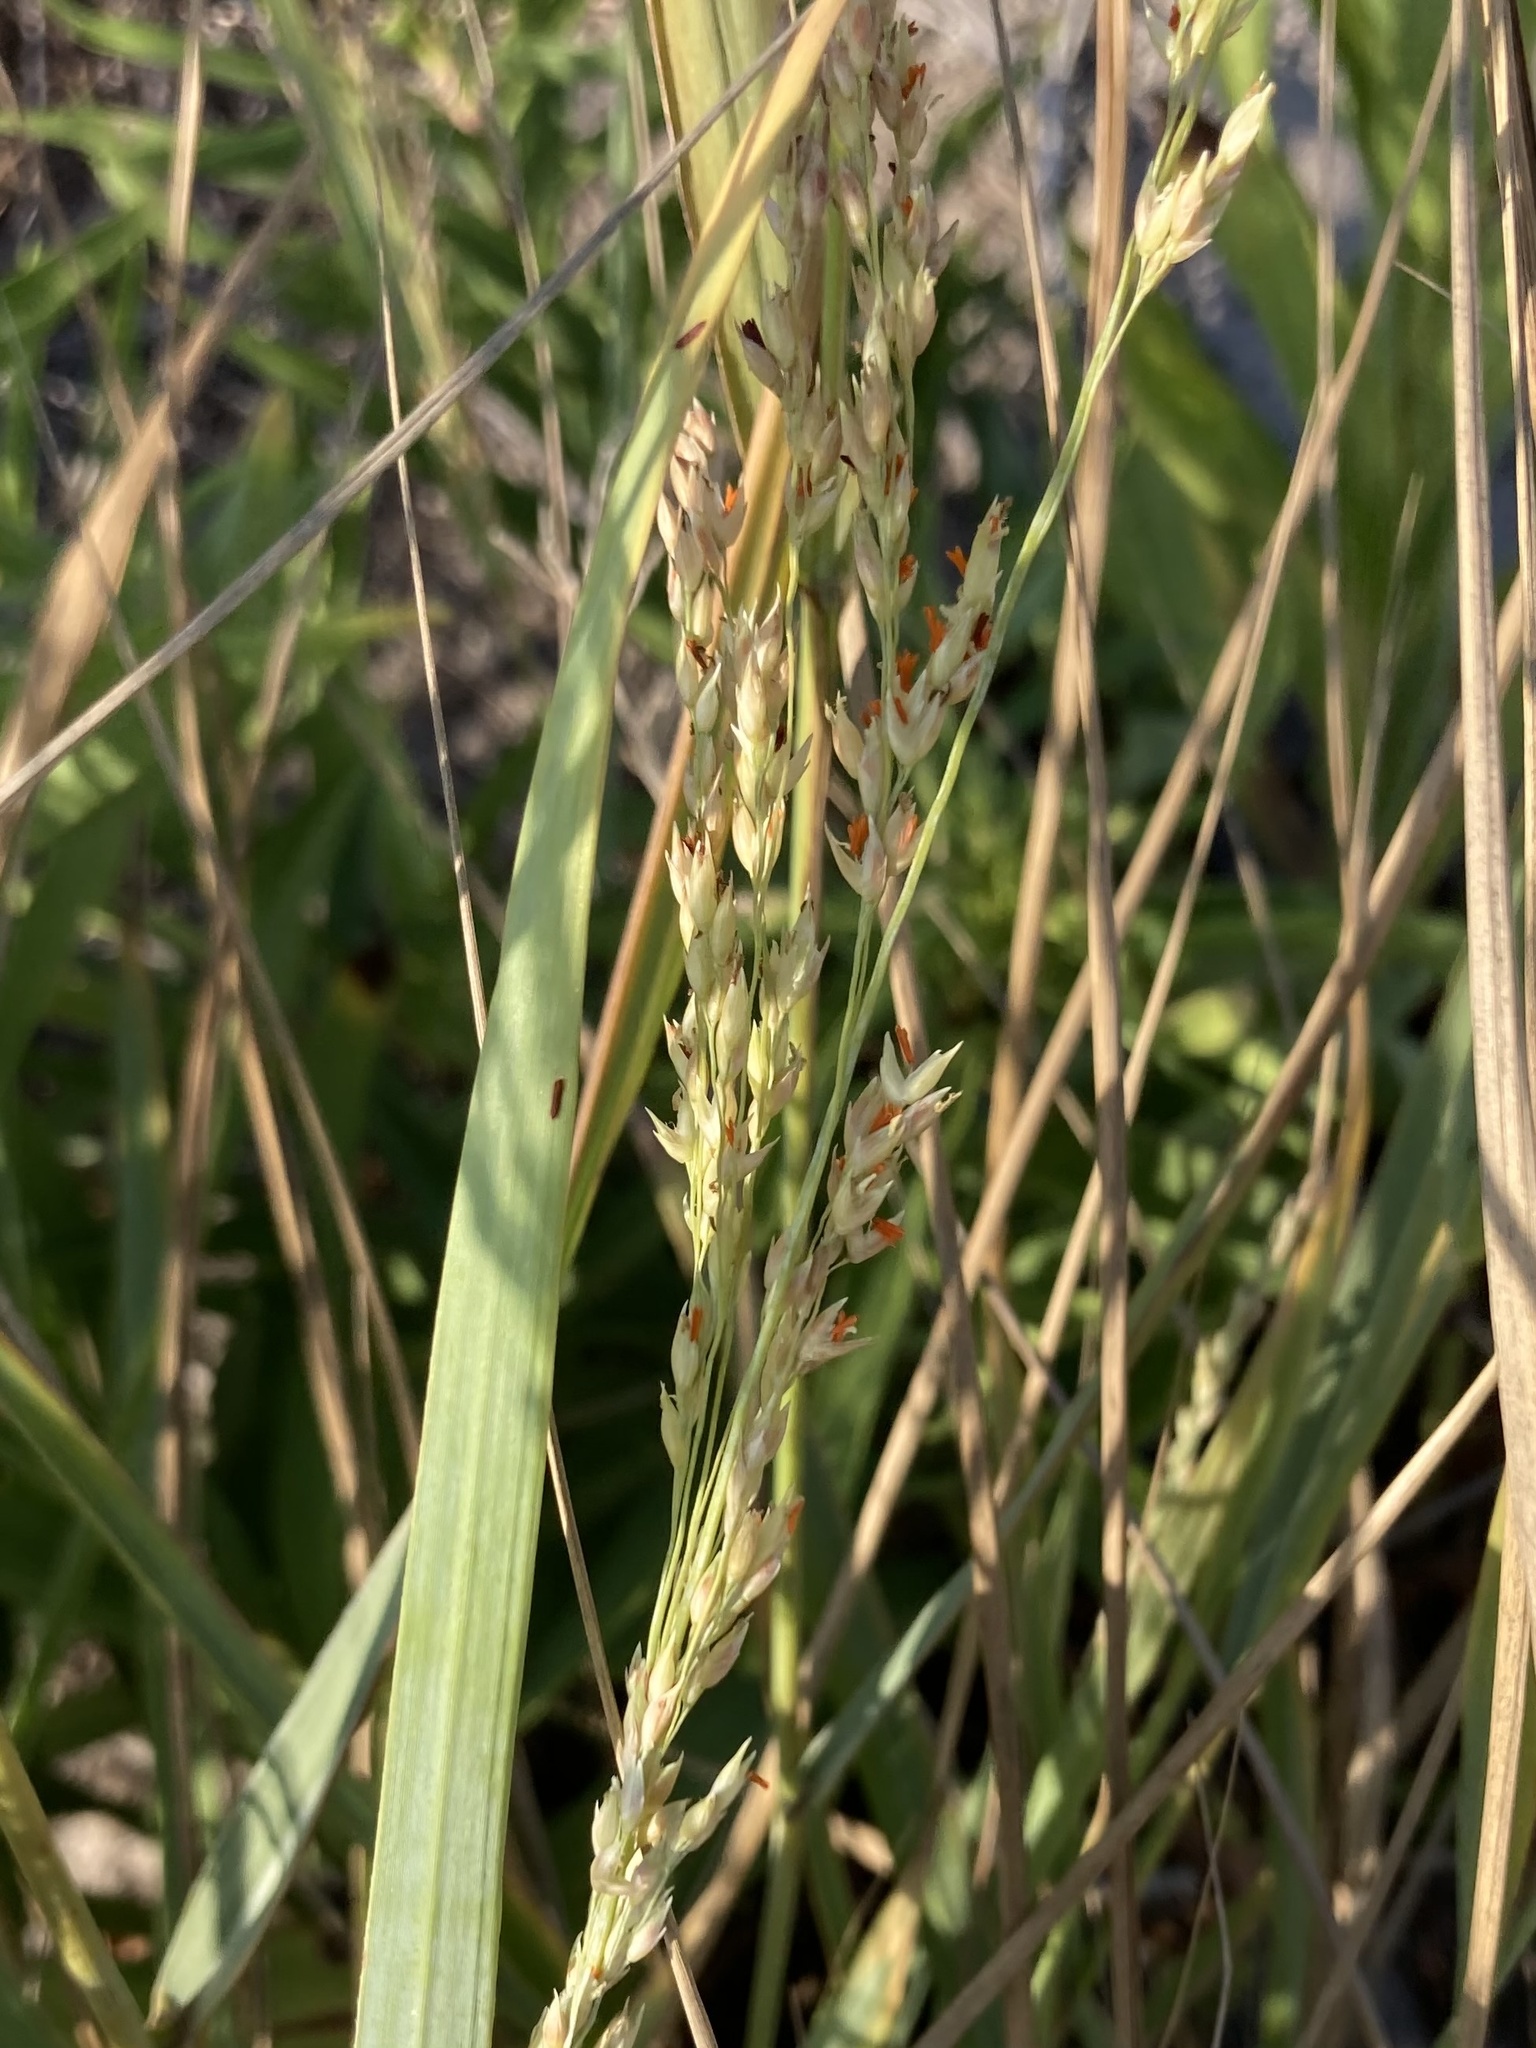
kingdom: Plantae
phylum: Tracheophyta
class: Liliopsida
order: Poales
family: Poaceae
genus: Panicum
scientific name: Panicum amarum
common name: Bitter panicum
